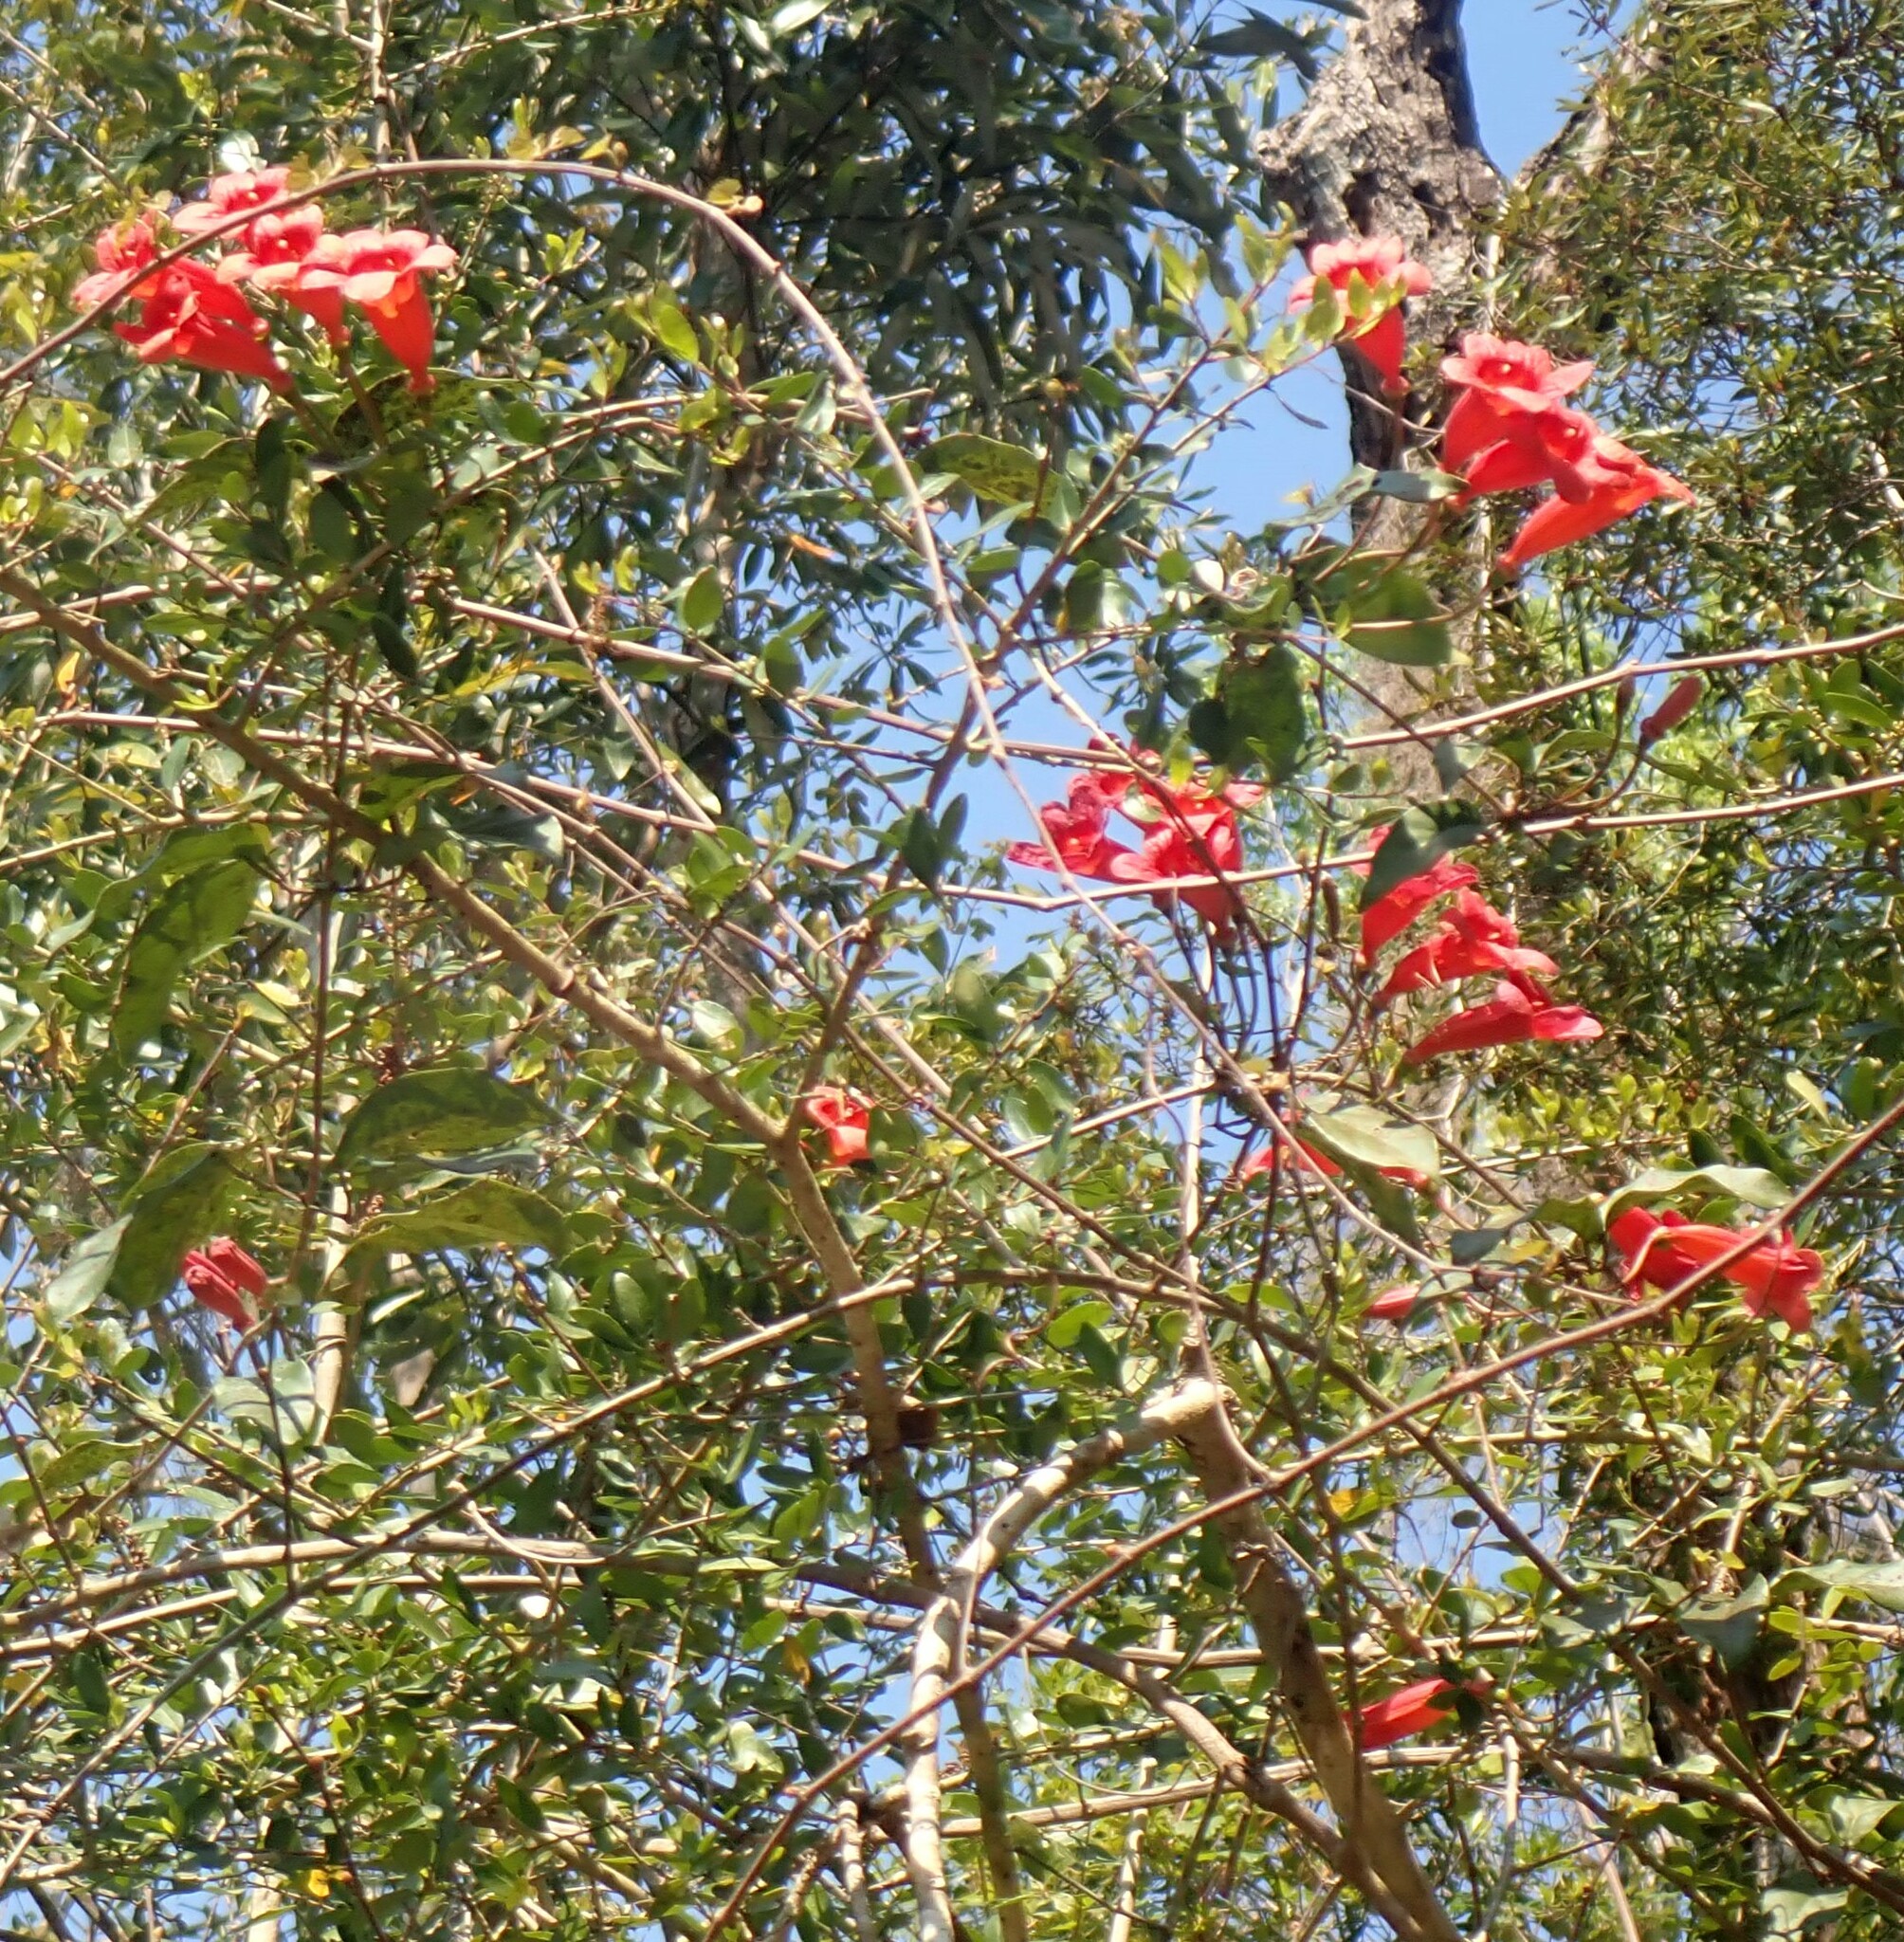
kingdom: Plantae
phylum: Tracheophyta
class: Magnoliopsida
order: Lamiales
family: Bignoniaceae
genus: Bignonia
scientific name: Bignonia capreolata
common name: Crossvine
